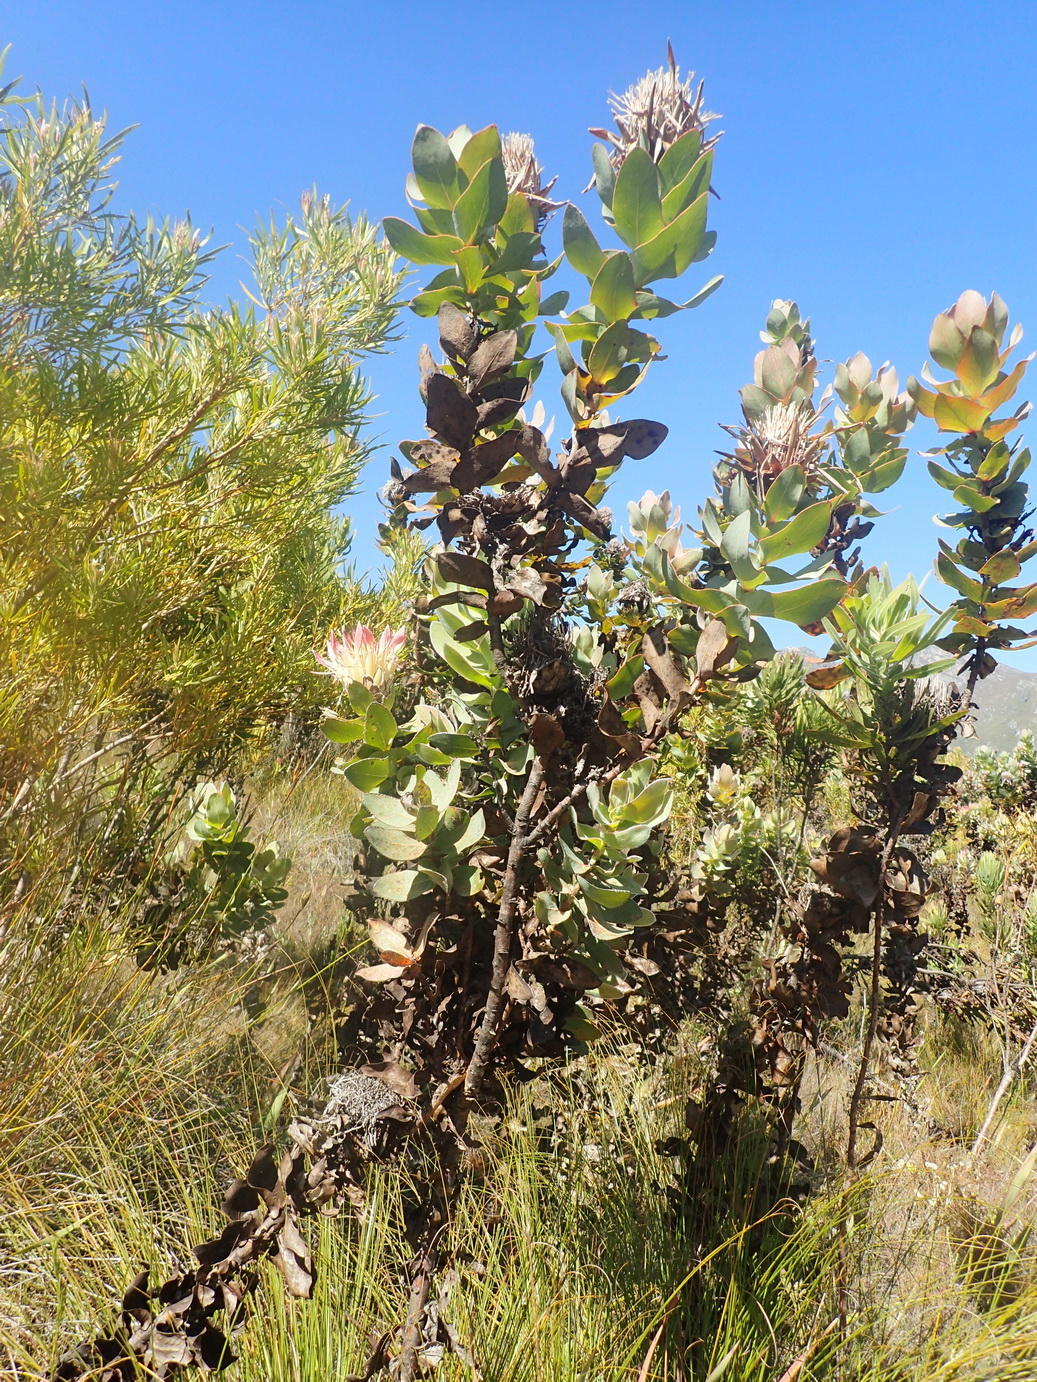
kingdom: Plantae
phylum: Tracheophyta
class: Magnoliopsida
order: Proteales
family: Proteaceae
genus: Protea
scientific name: Protea eximia
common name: Broad-leaved sugarbush
